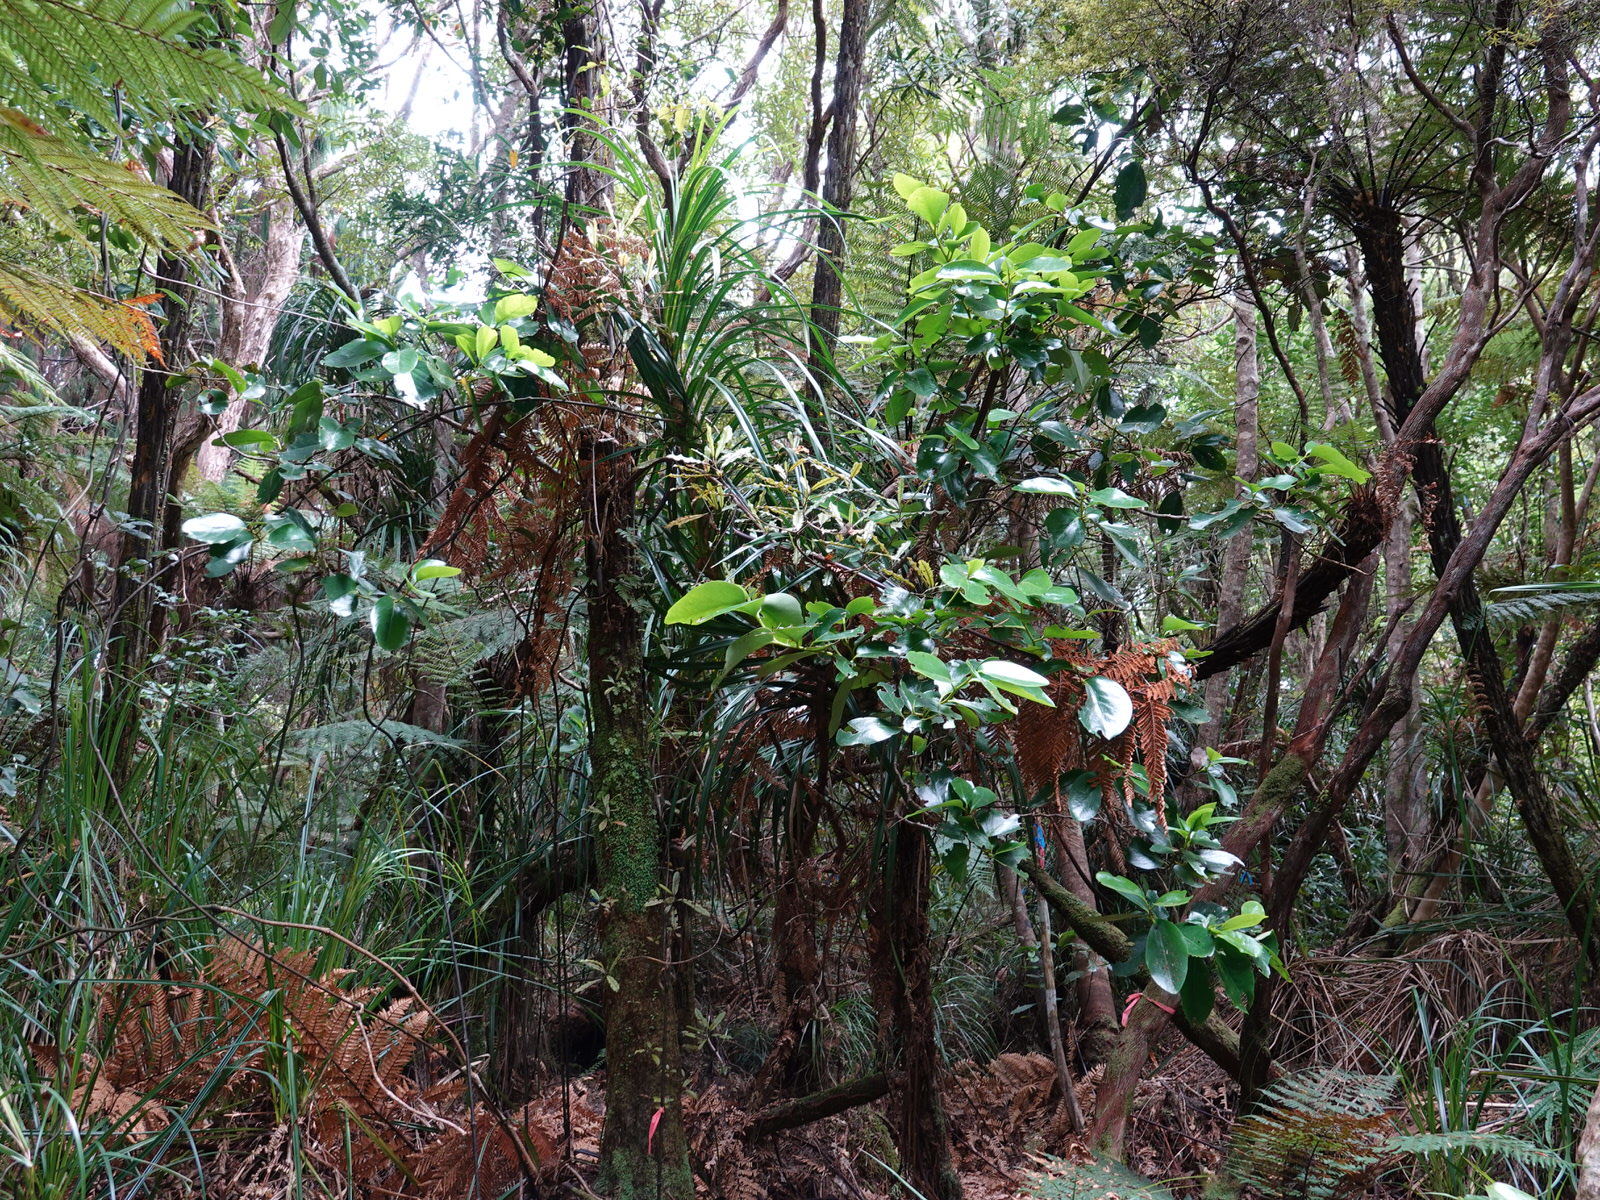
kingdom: Plantae
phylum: Tracheophyta
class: Magnoliopsida
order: Apiales
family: Griseliniaceae
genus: Griselinia
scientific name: Griselinia lucida
